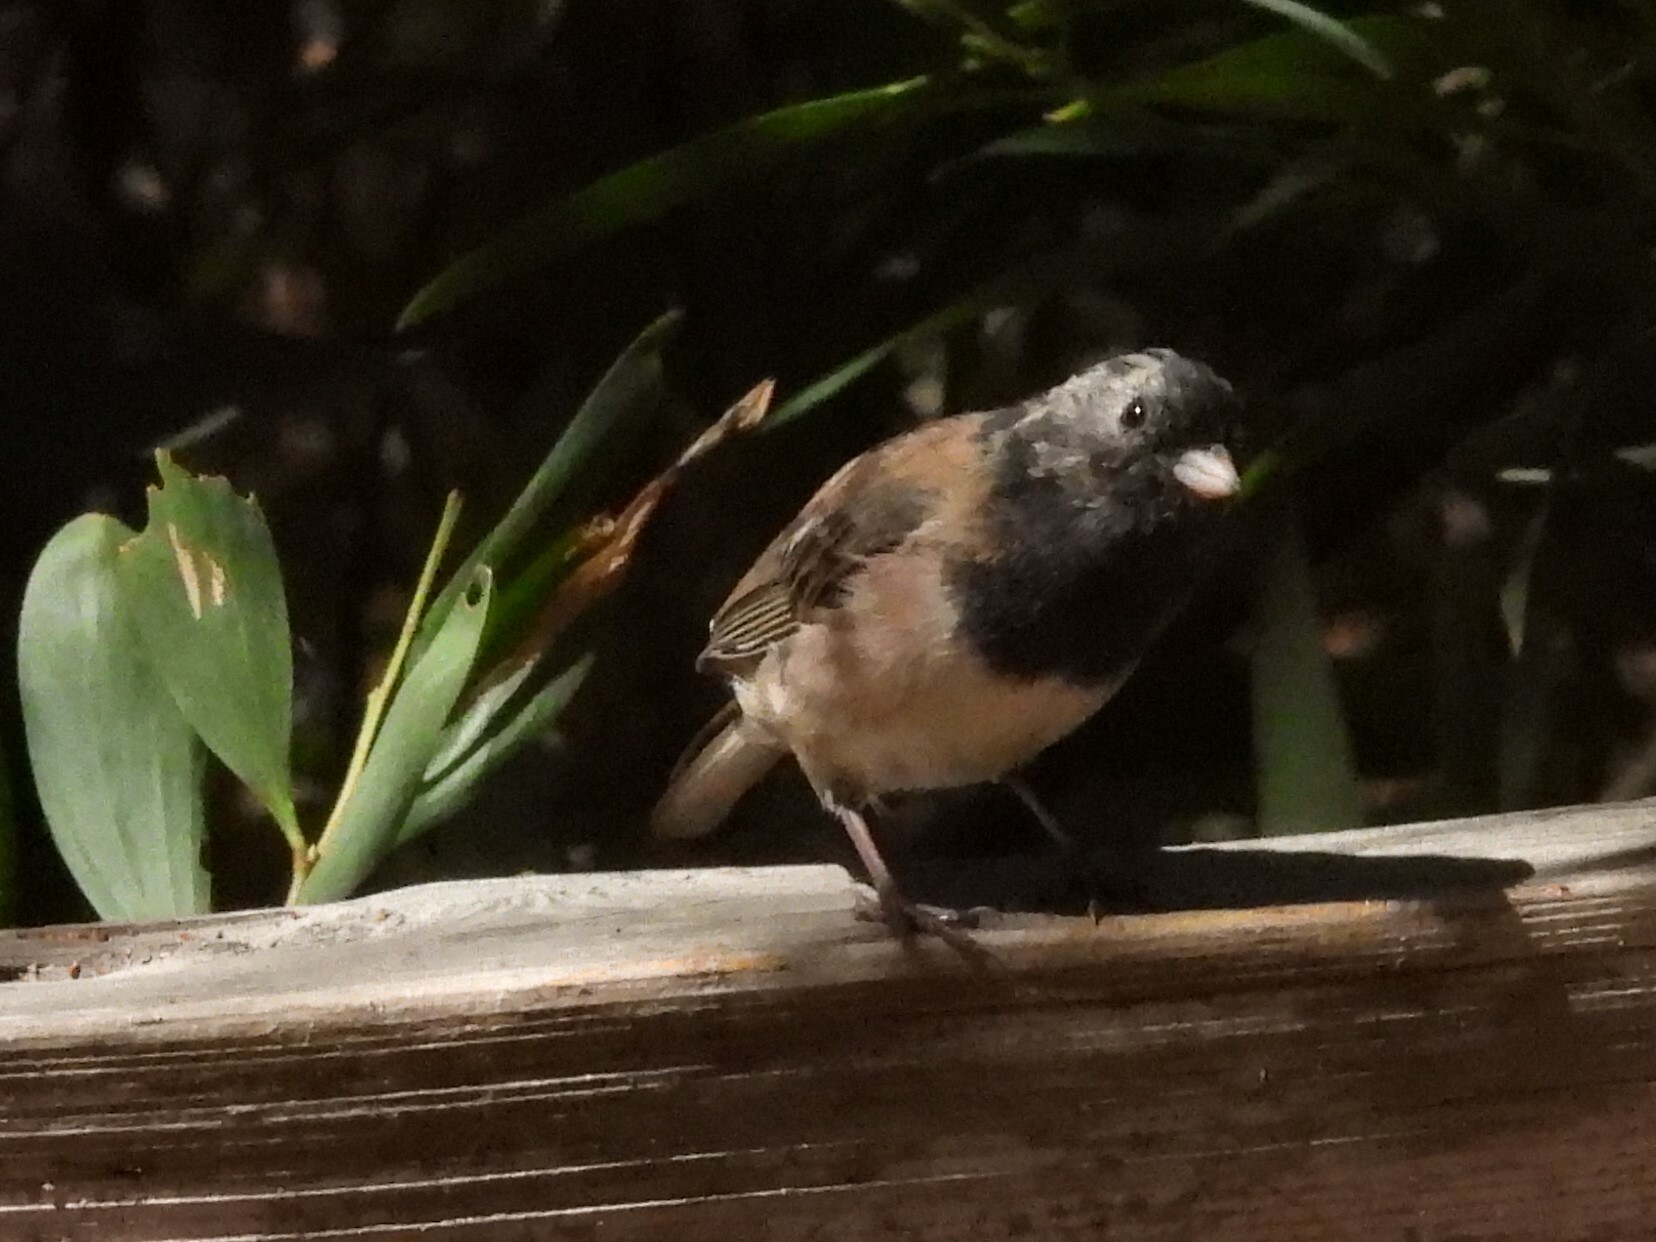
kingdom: Animalia
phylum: Chordata
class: Aves
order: Passeriformes
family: Passerellidae
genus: Junco
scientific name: Junco hyemalis
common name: Dark-eyed junco
